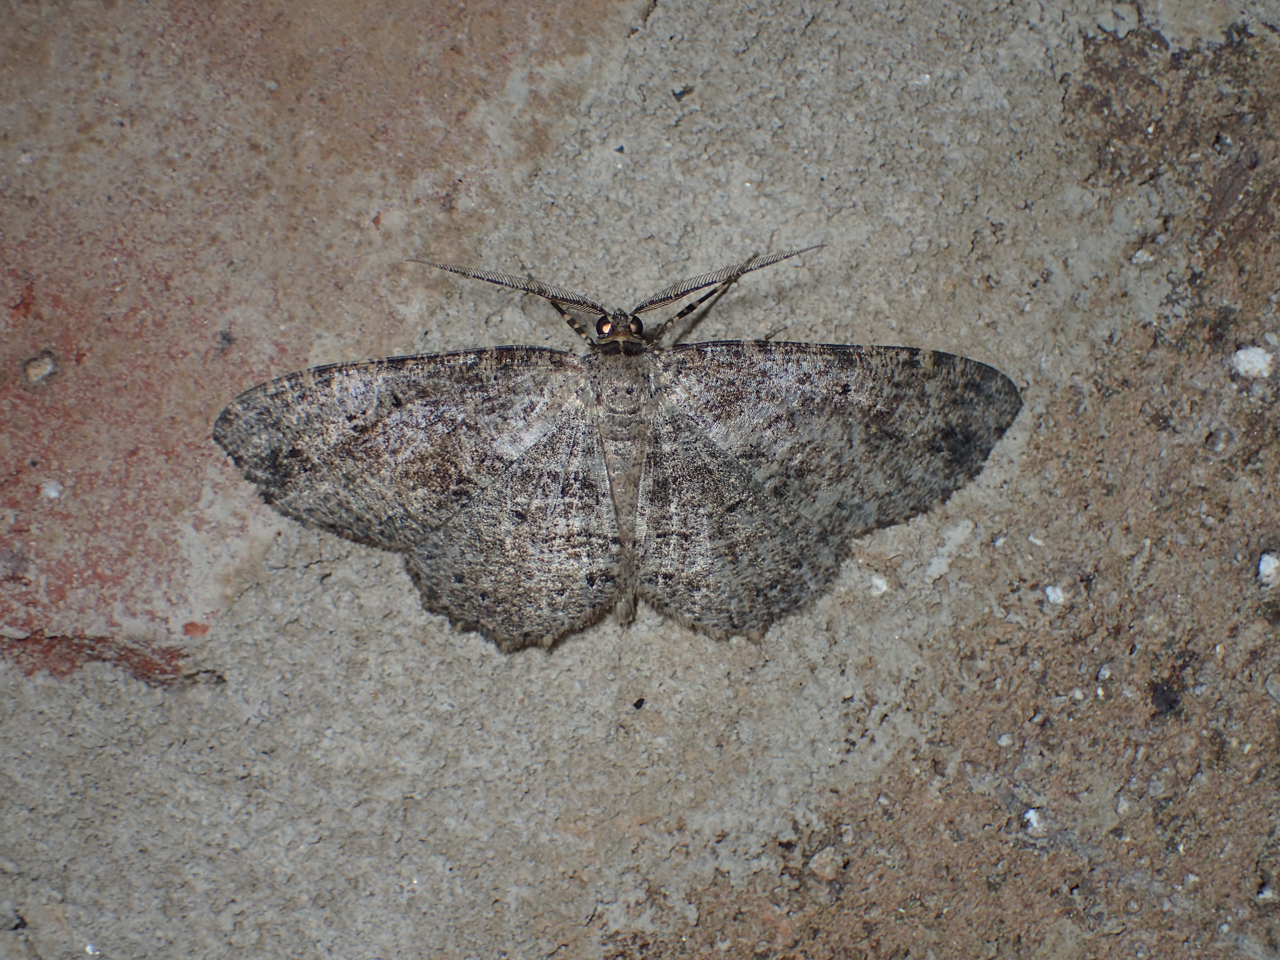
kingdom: Animalia
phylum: Arthropoda
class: Insecta
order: Lepidoptera
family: Geometridae
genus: Melanolophia
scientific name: Melanolophia canadaria
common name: Canadian melanolophia
